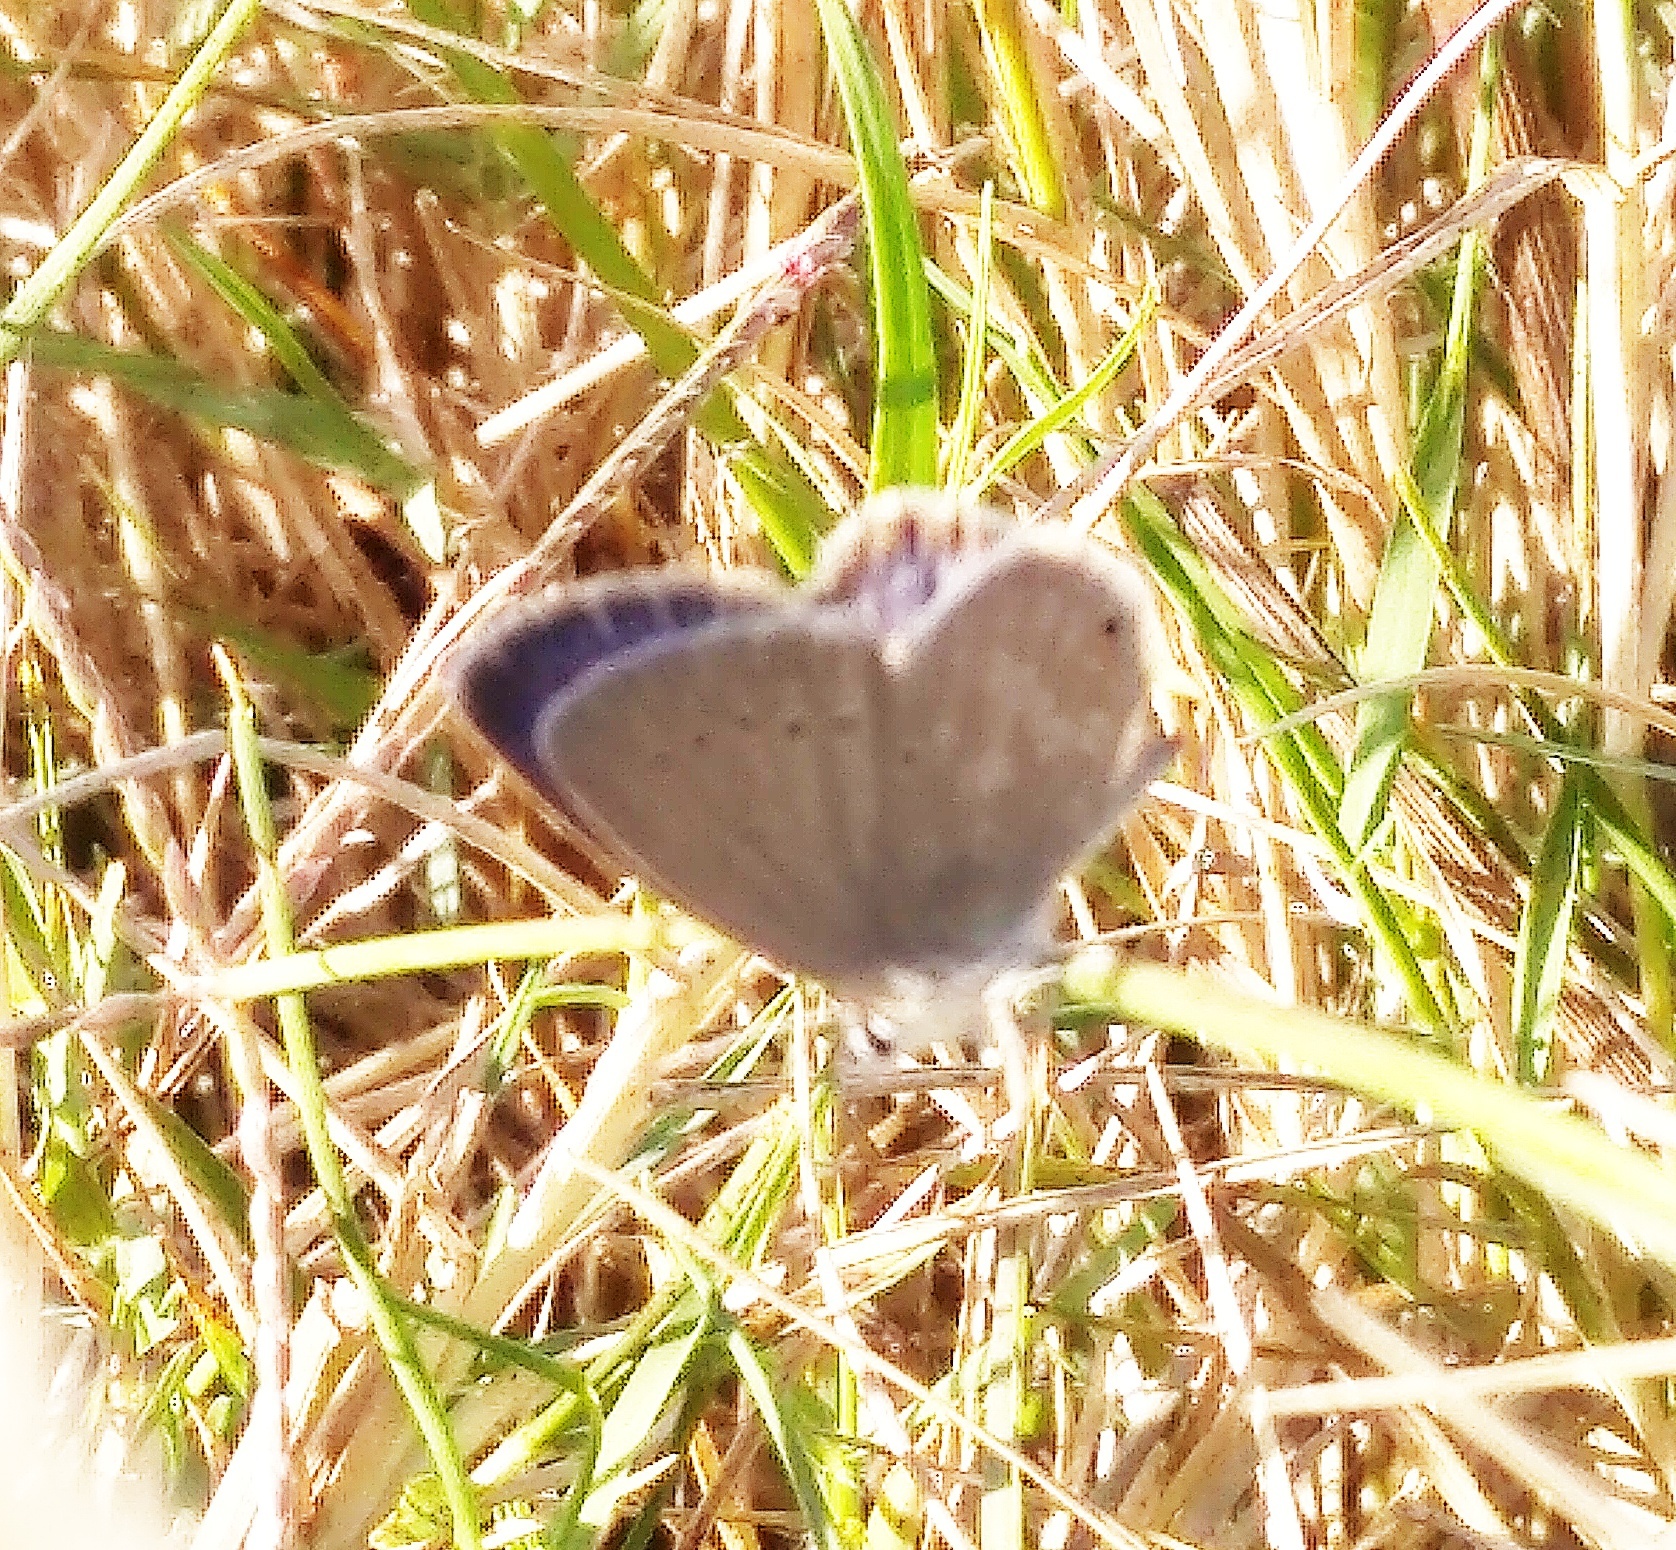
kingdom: Animalia
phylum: Arthropoda
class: Insecta
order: Lepidoptera
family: Lycaenidae
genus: Eicochrysops
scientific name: Eicochrysops messapus
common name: Cupreous blue
